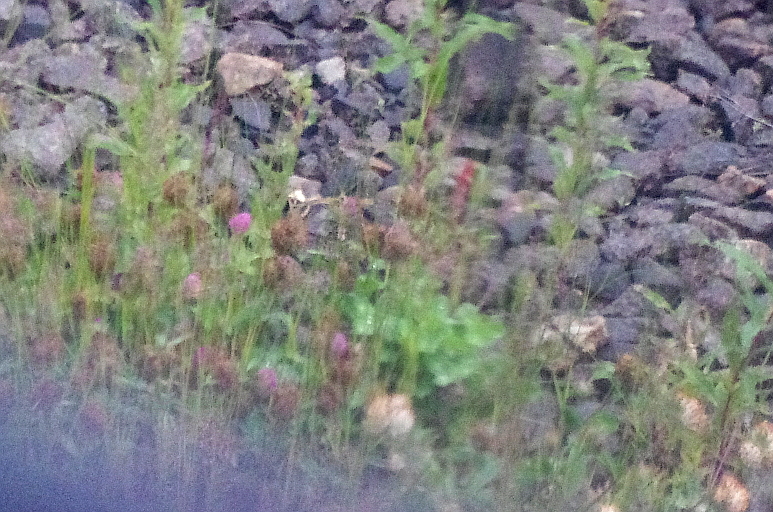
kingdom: Plantae
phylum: Tracheophyta
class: Magnoliopsida
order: Fabales
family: Fabaceae
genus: Trifolium
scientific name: Trifolium pratense
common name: Red clover
